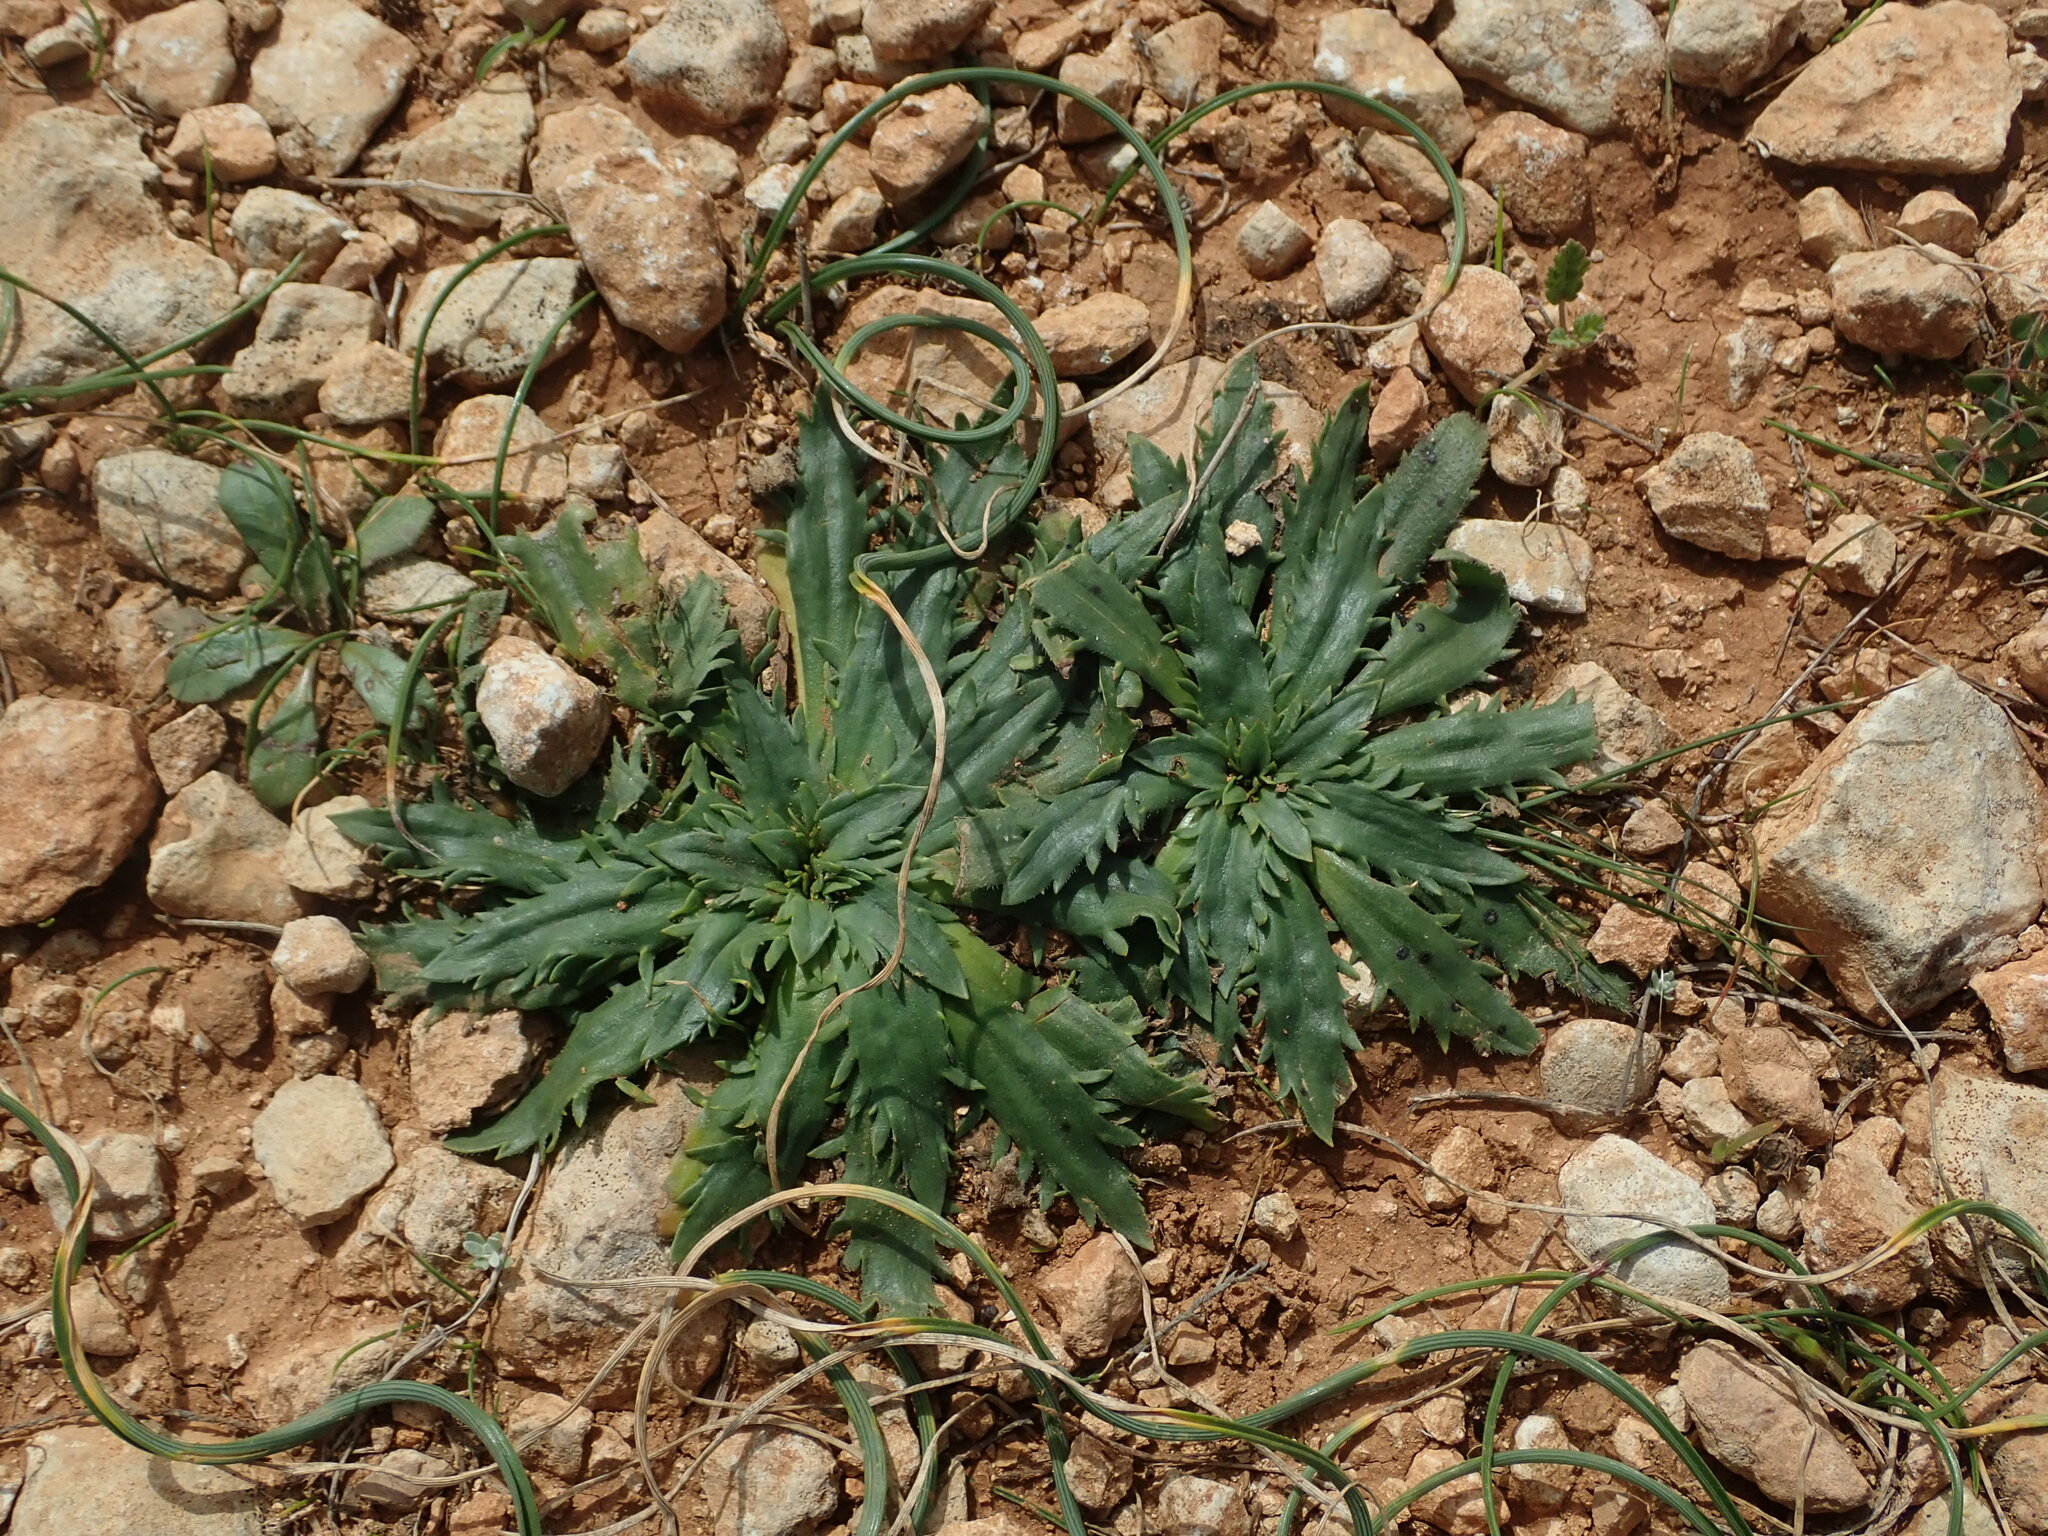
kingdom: Plantae
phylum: Tracheophyta
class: Magnoliopsida
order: Lamiales
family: Plantaginaceae
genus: Plantago
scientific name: Plantago serraria
